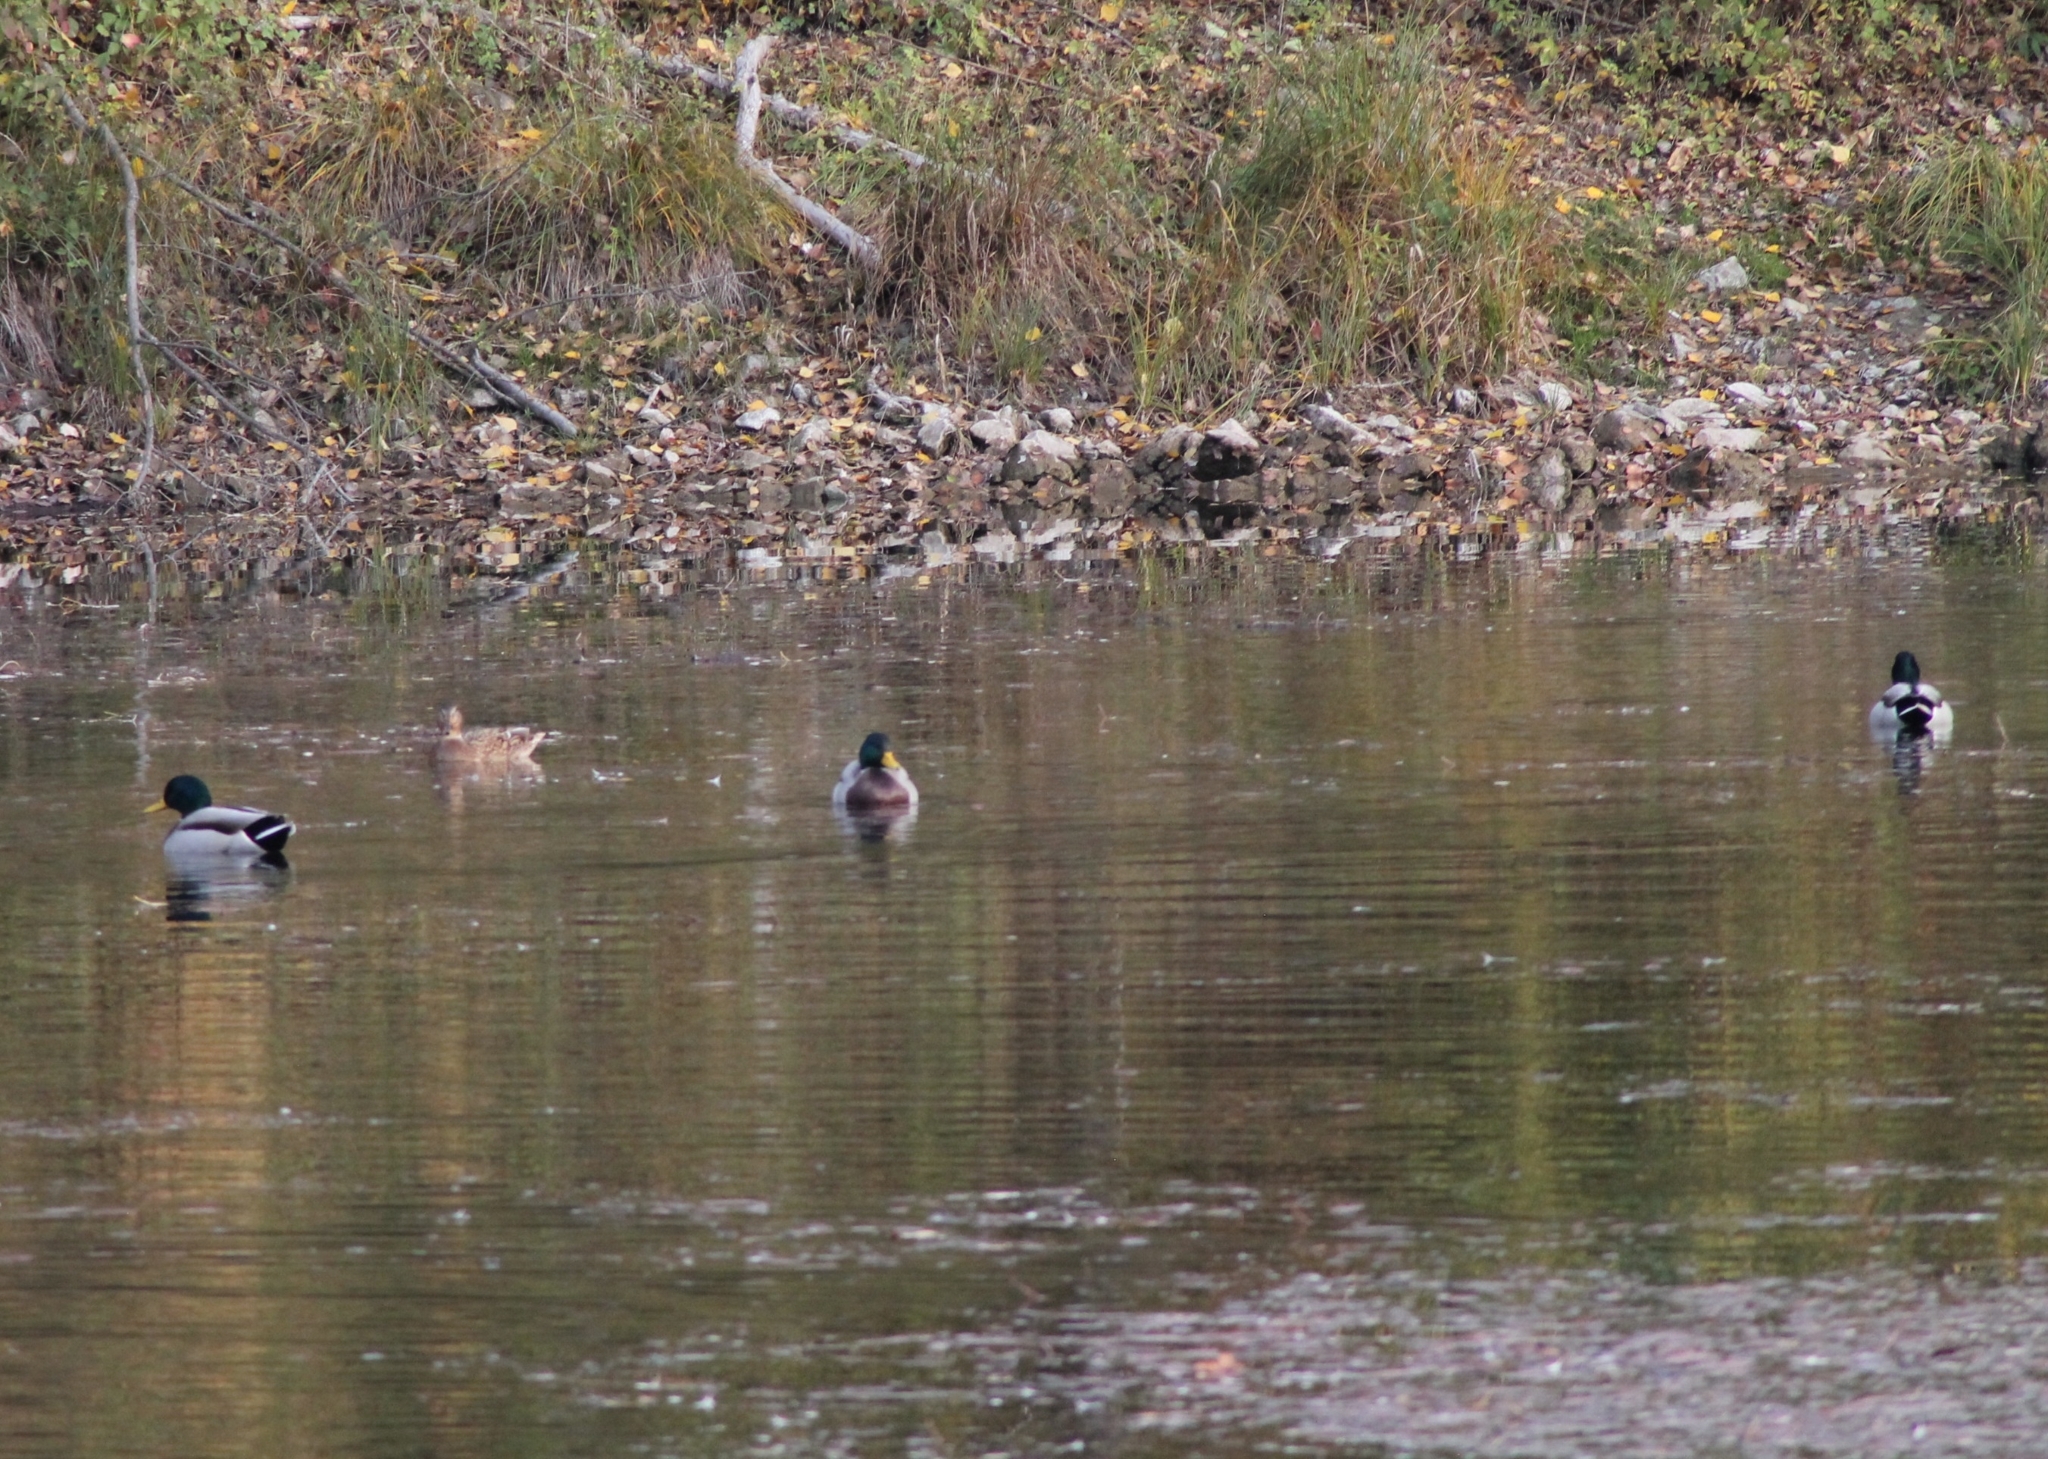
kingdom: Animalia
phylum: Chordata
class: Aves
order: Anseriformes
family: Anatidae
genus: Anas
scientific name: Anas platyrhynchos
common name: Mallard
